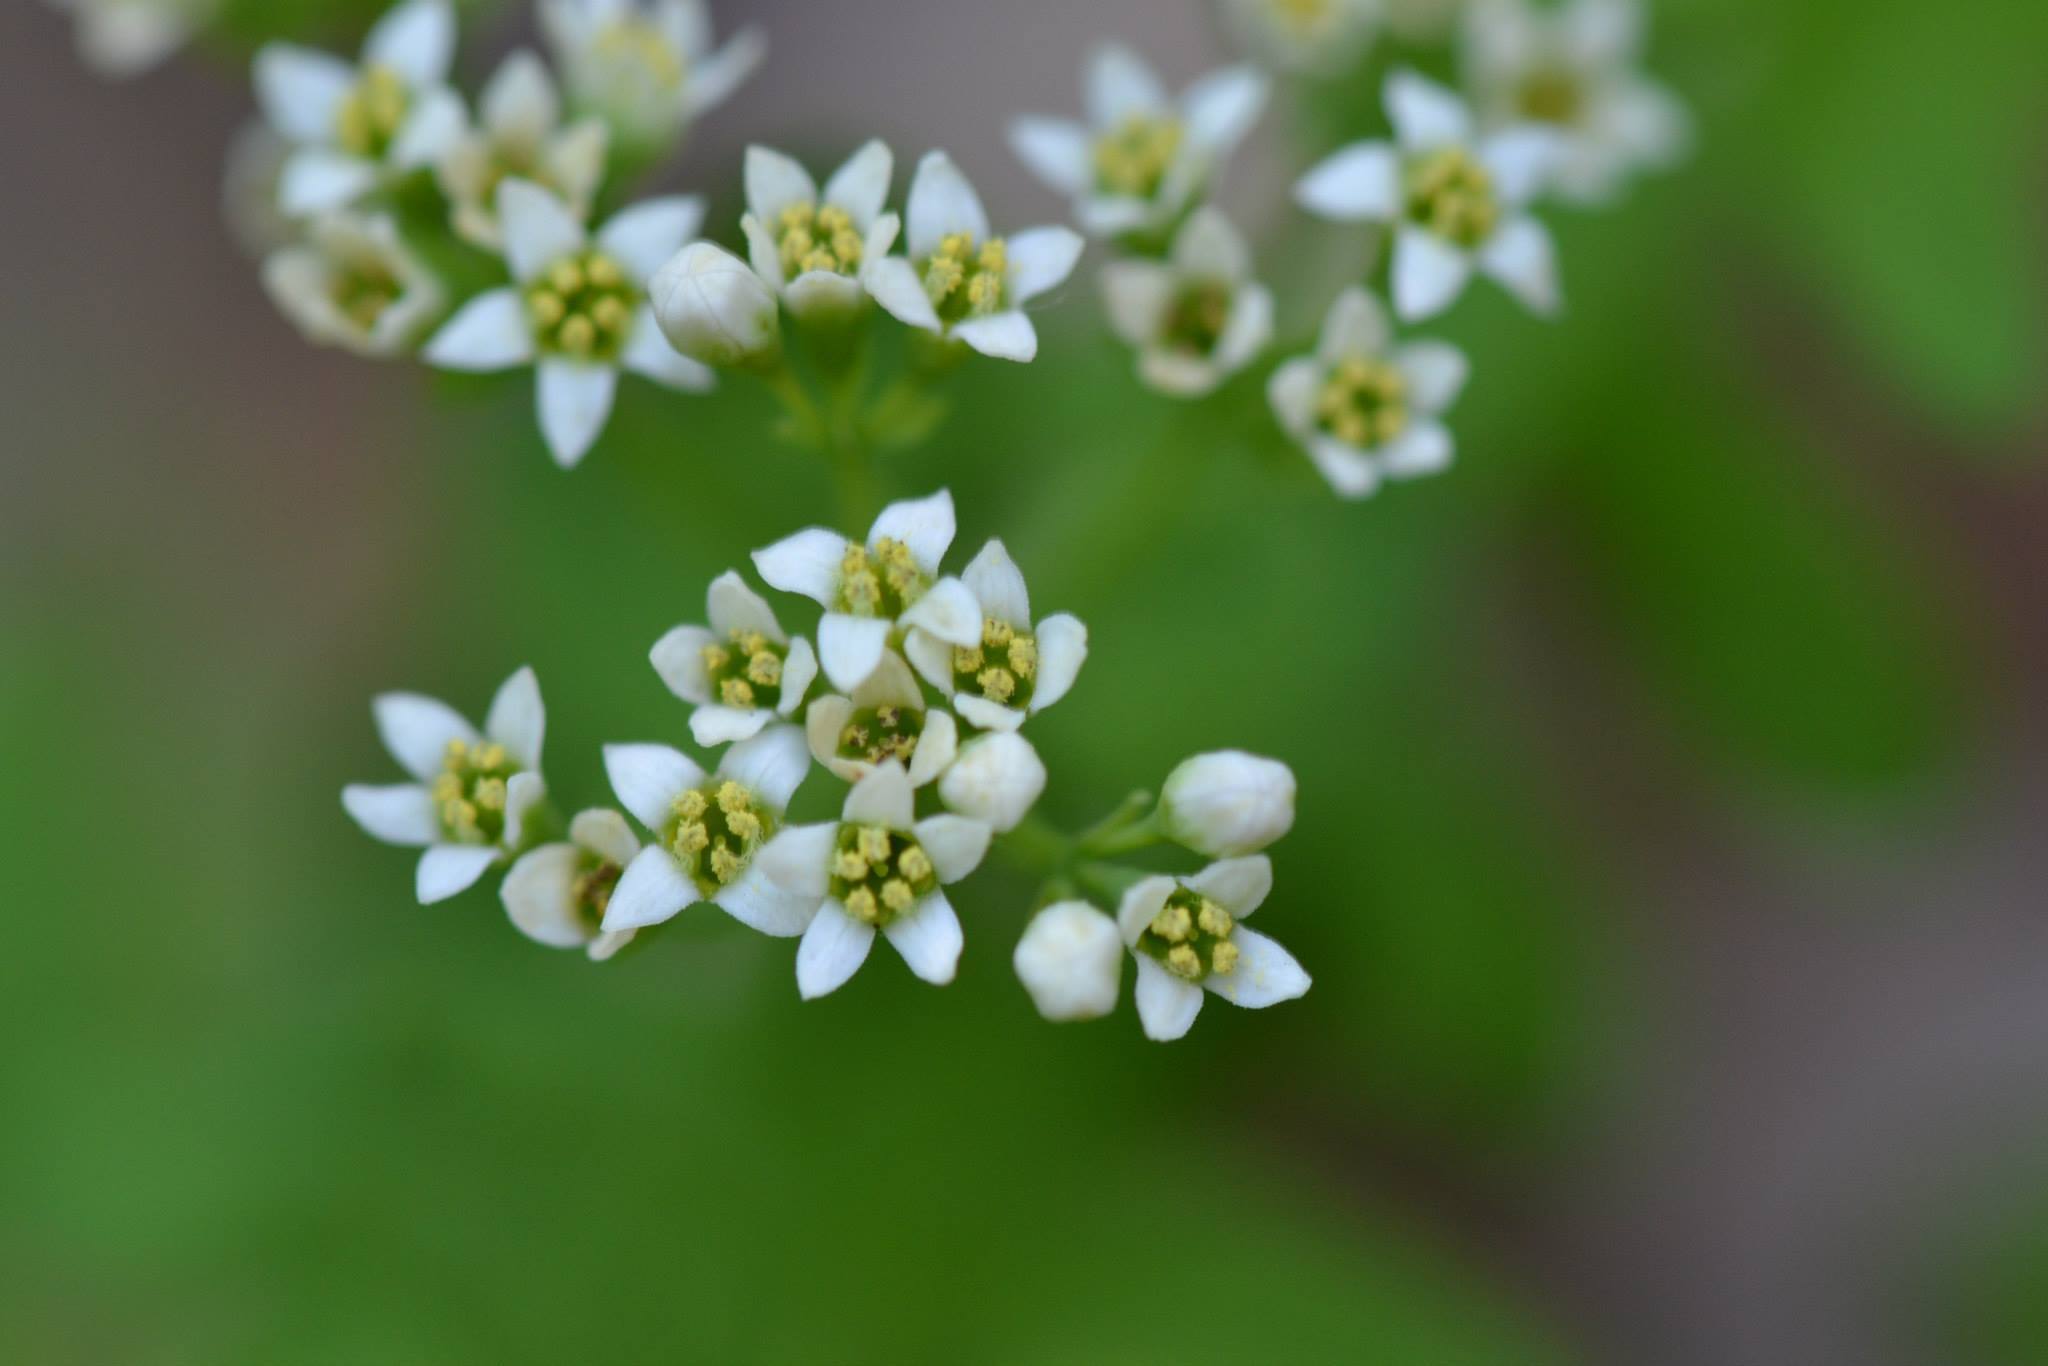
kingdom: Plantae
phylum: Tracheophyta
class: Magnoliopsida
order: Santalales
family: Comandraceae
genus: Comandra
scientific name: Comandra umbellata
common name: Bastard toadflax
